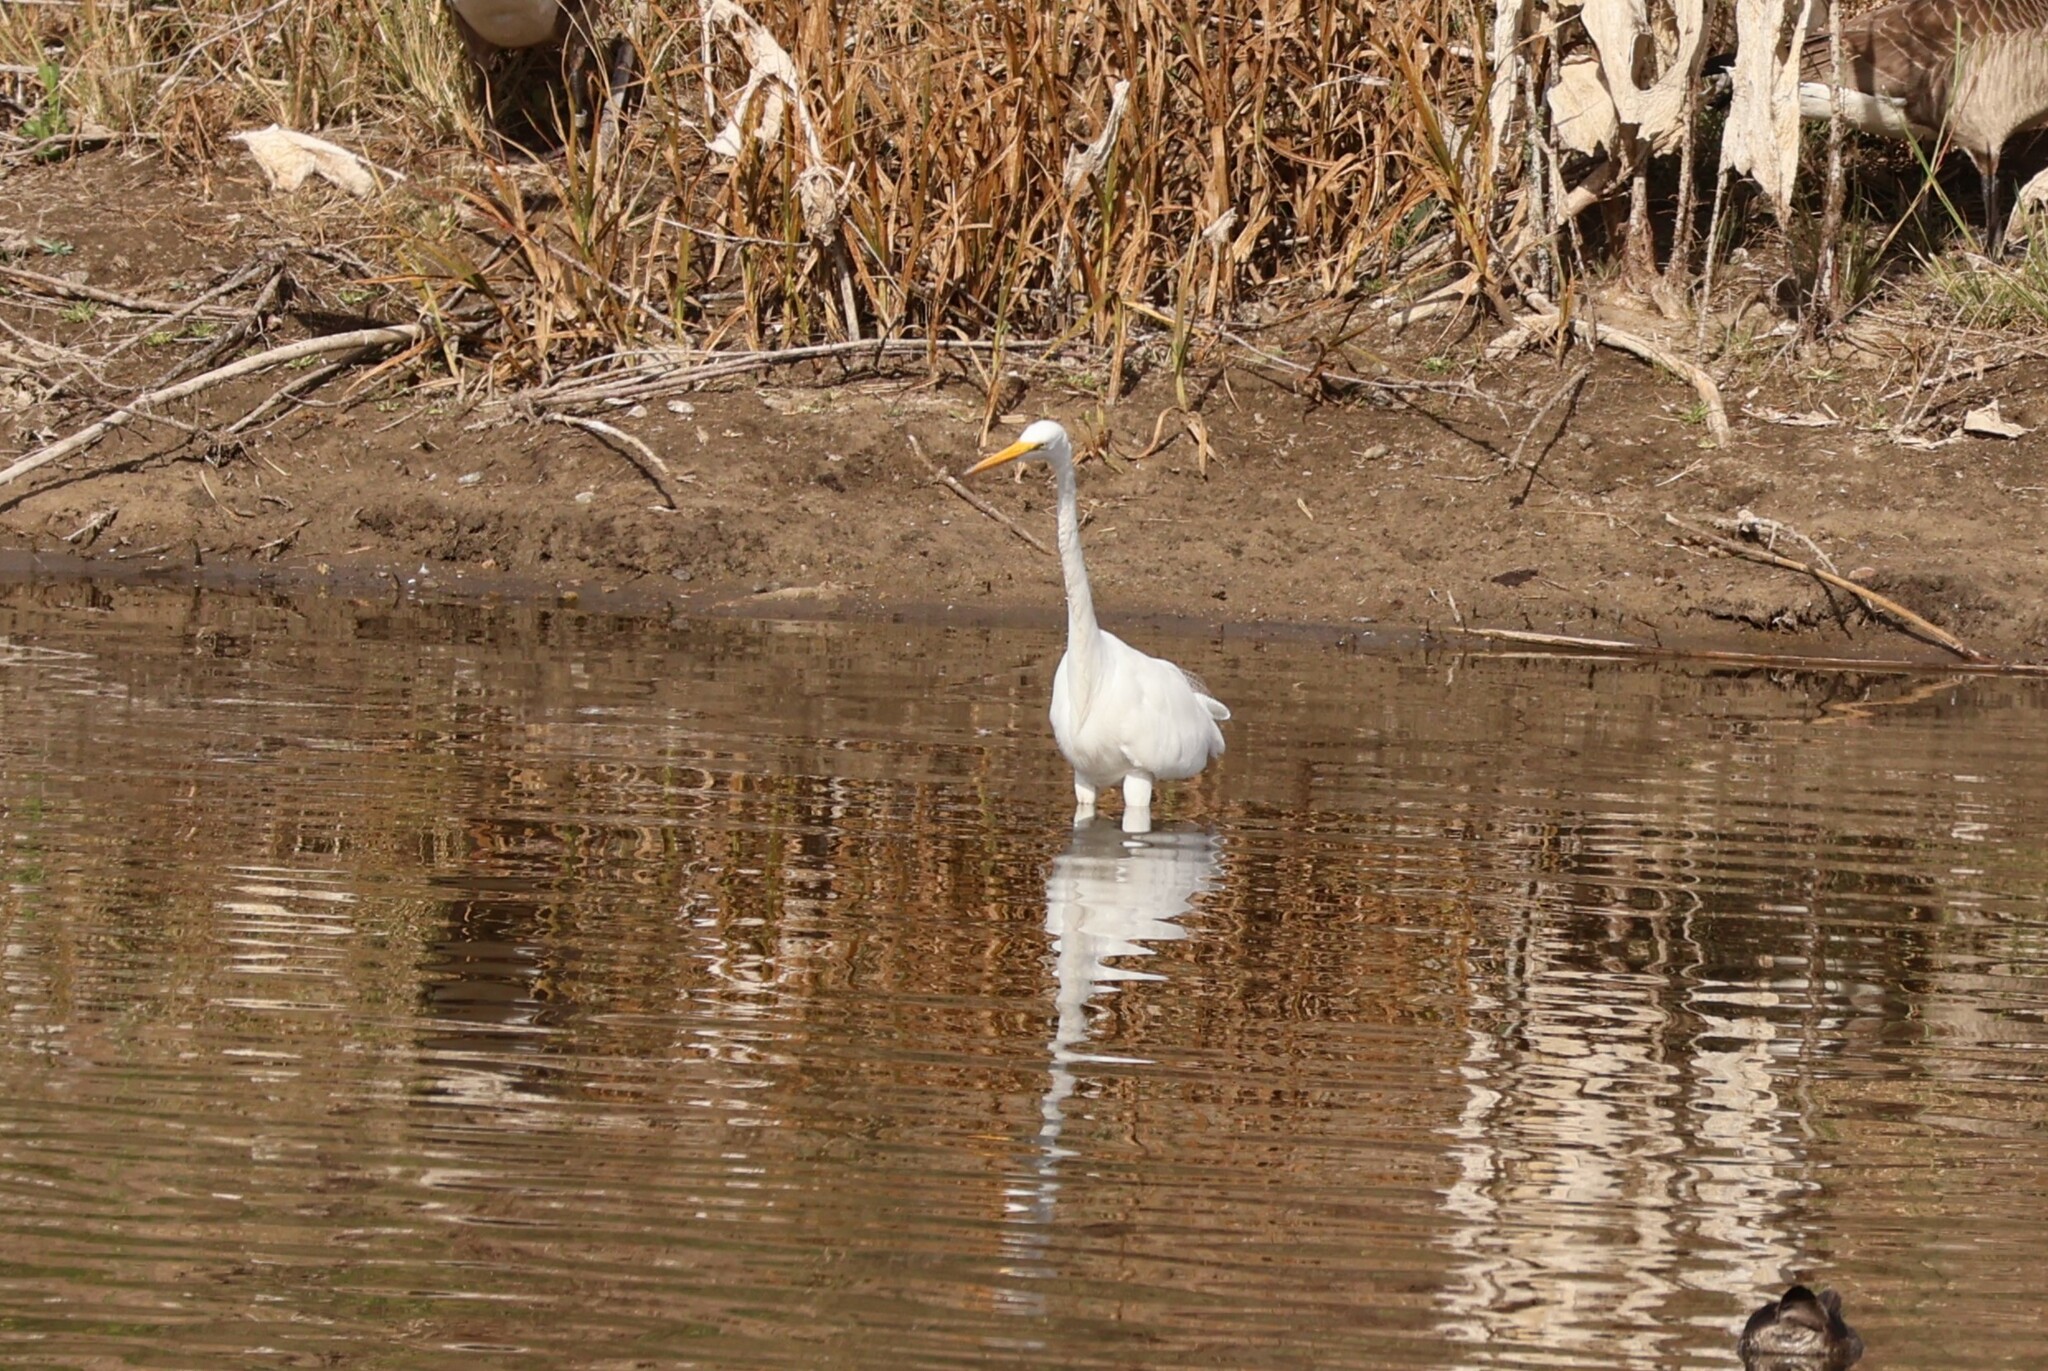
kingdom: Animalia
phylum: Chordata
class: Aves
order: Pelecaniformes
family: Ardeidae
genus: Ardea
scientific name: Ardea alba
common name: Great egret
